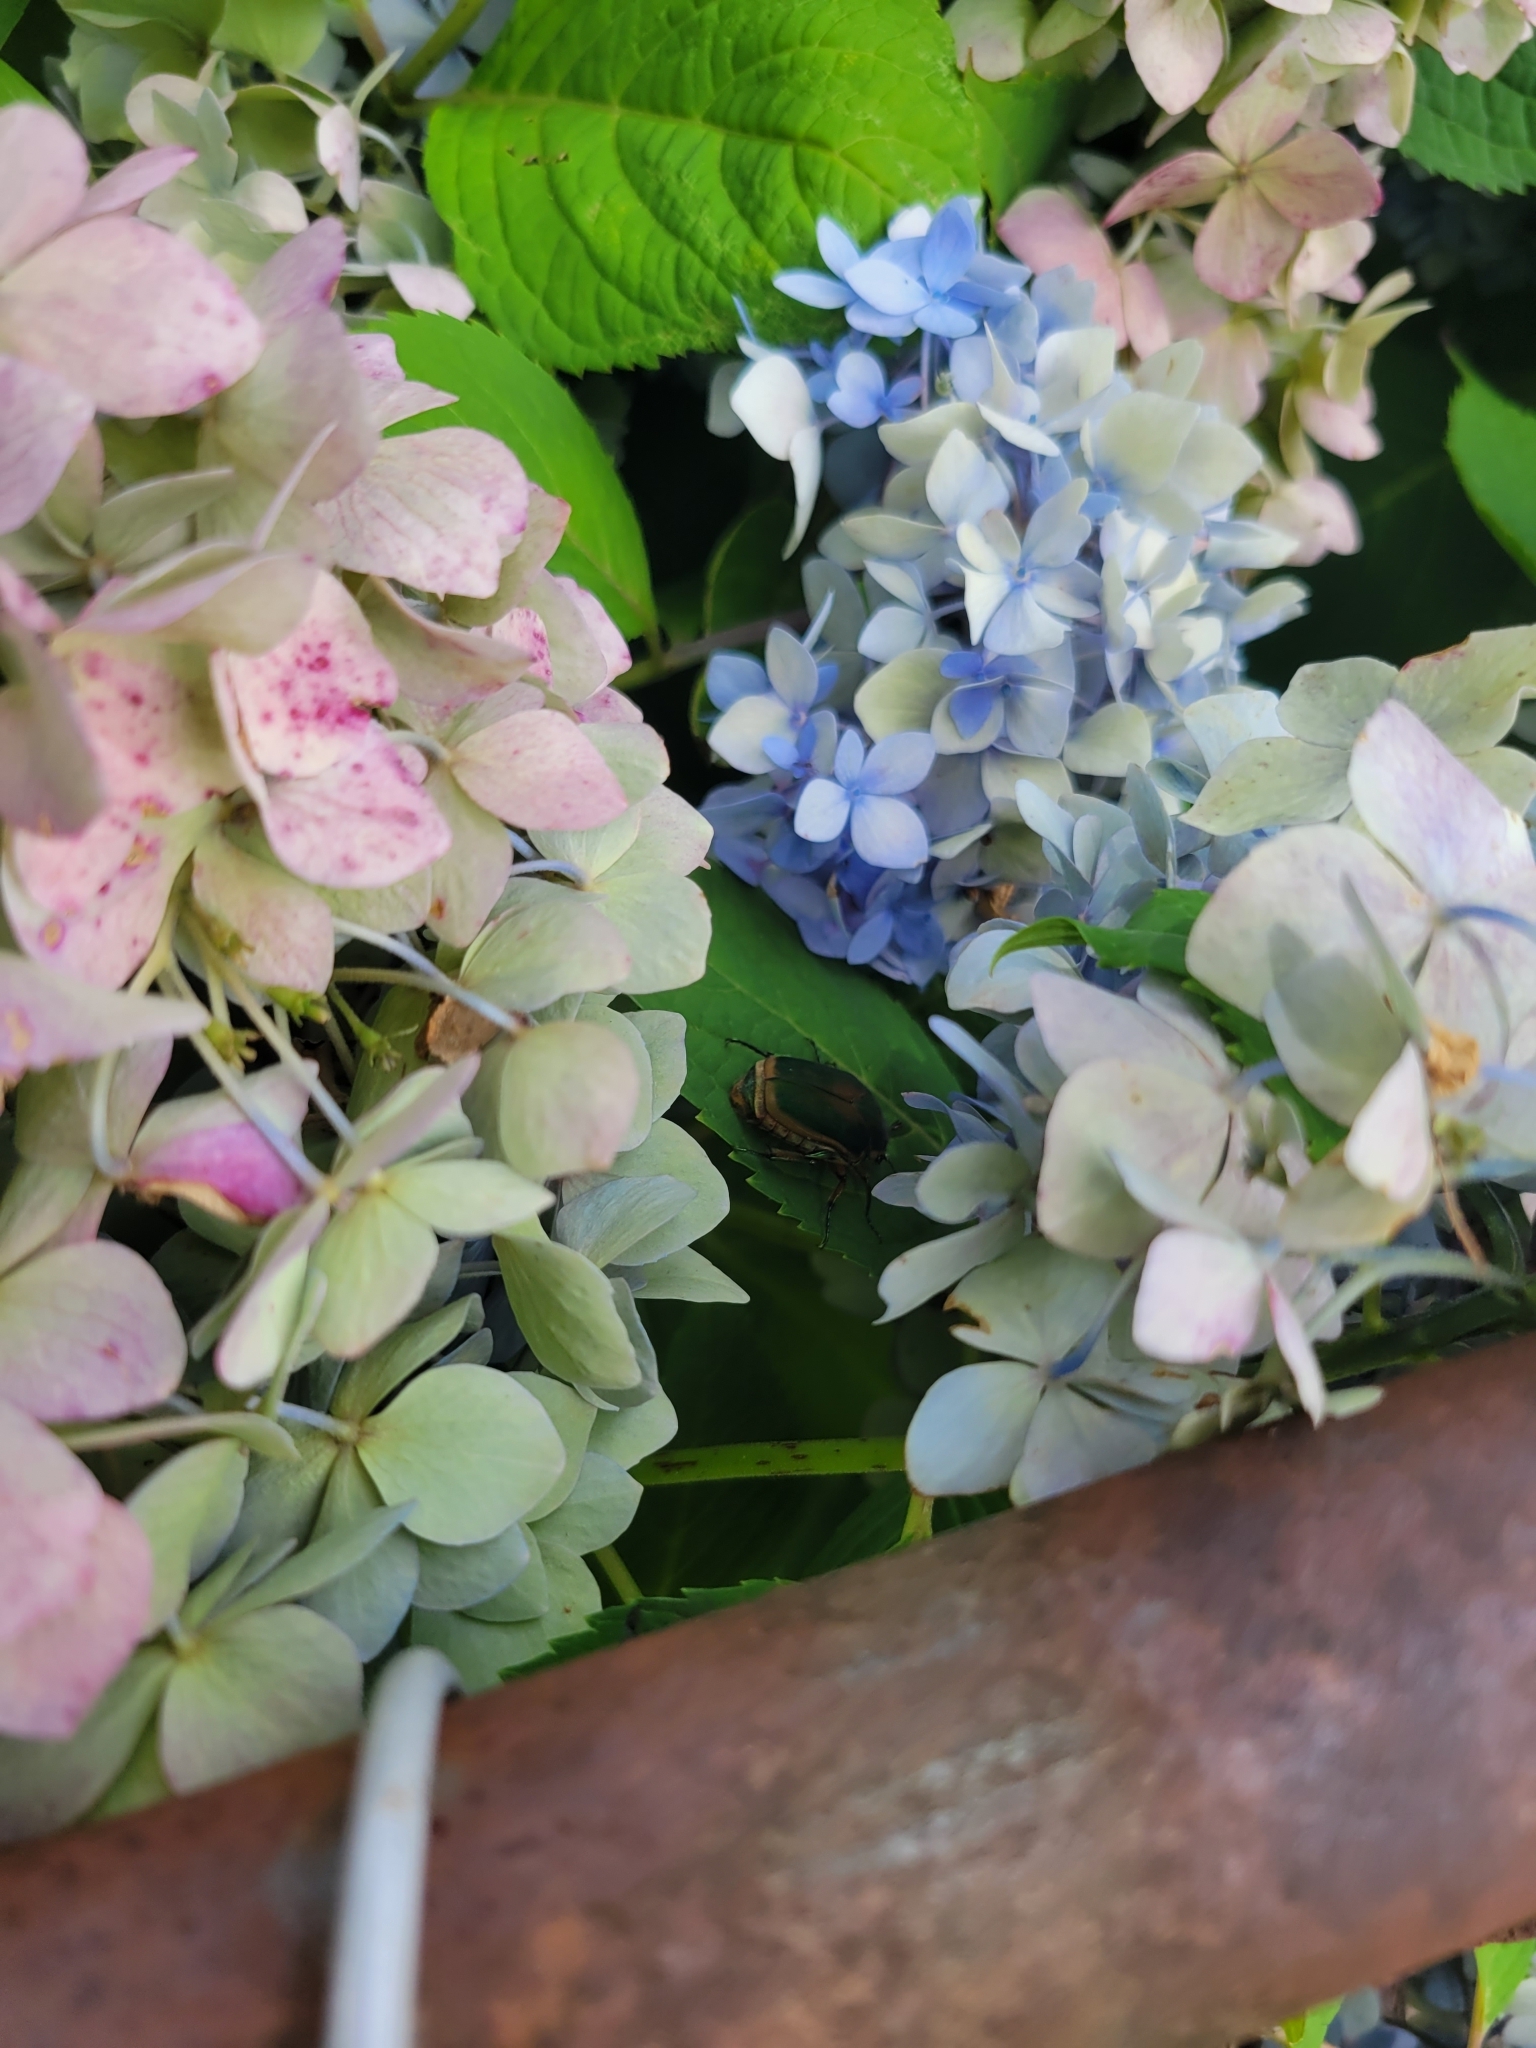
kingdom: Animalia
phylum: Arthropoda
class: Insecta
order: Coleoptera
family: Scarabaeidae
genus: Cotinis
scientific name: Cotinis nitida
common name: Common green june beetle
